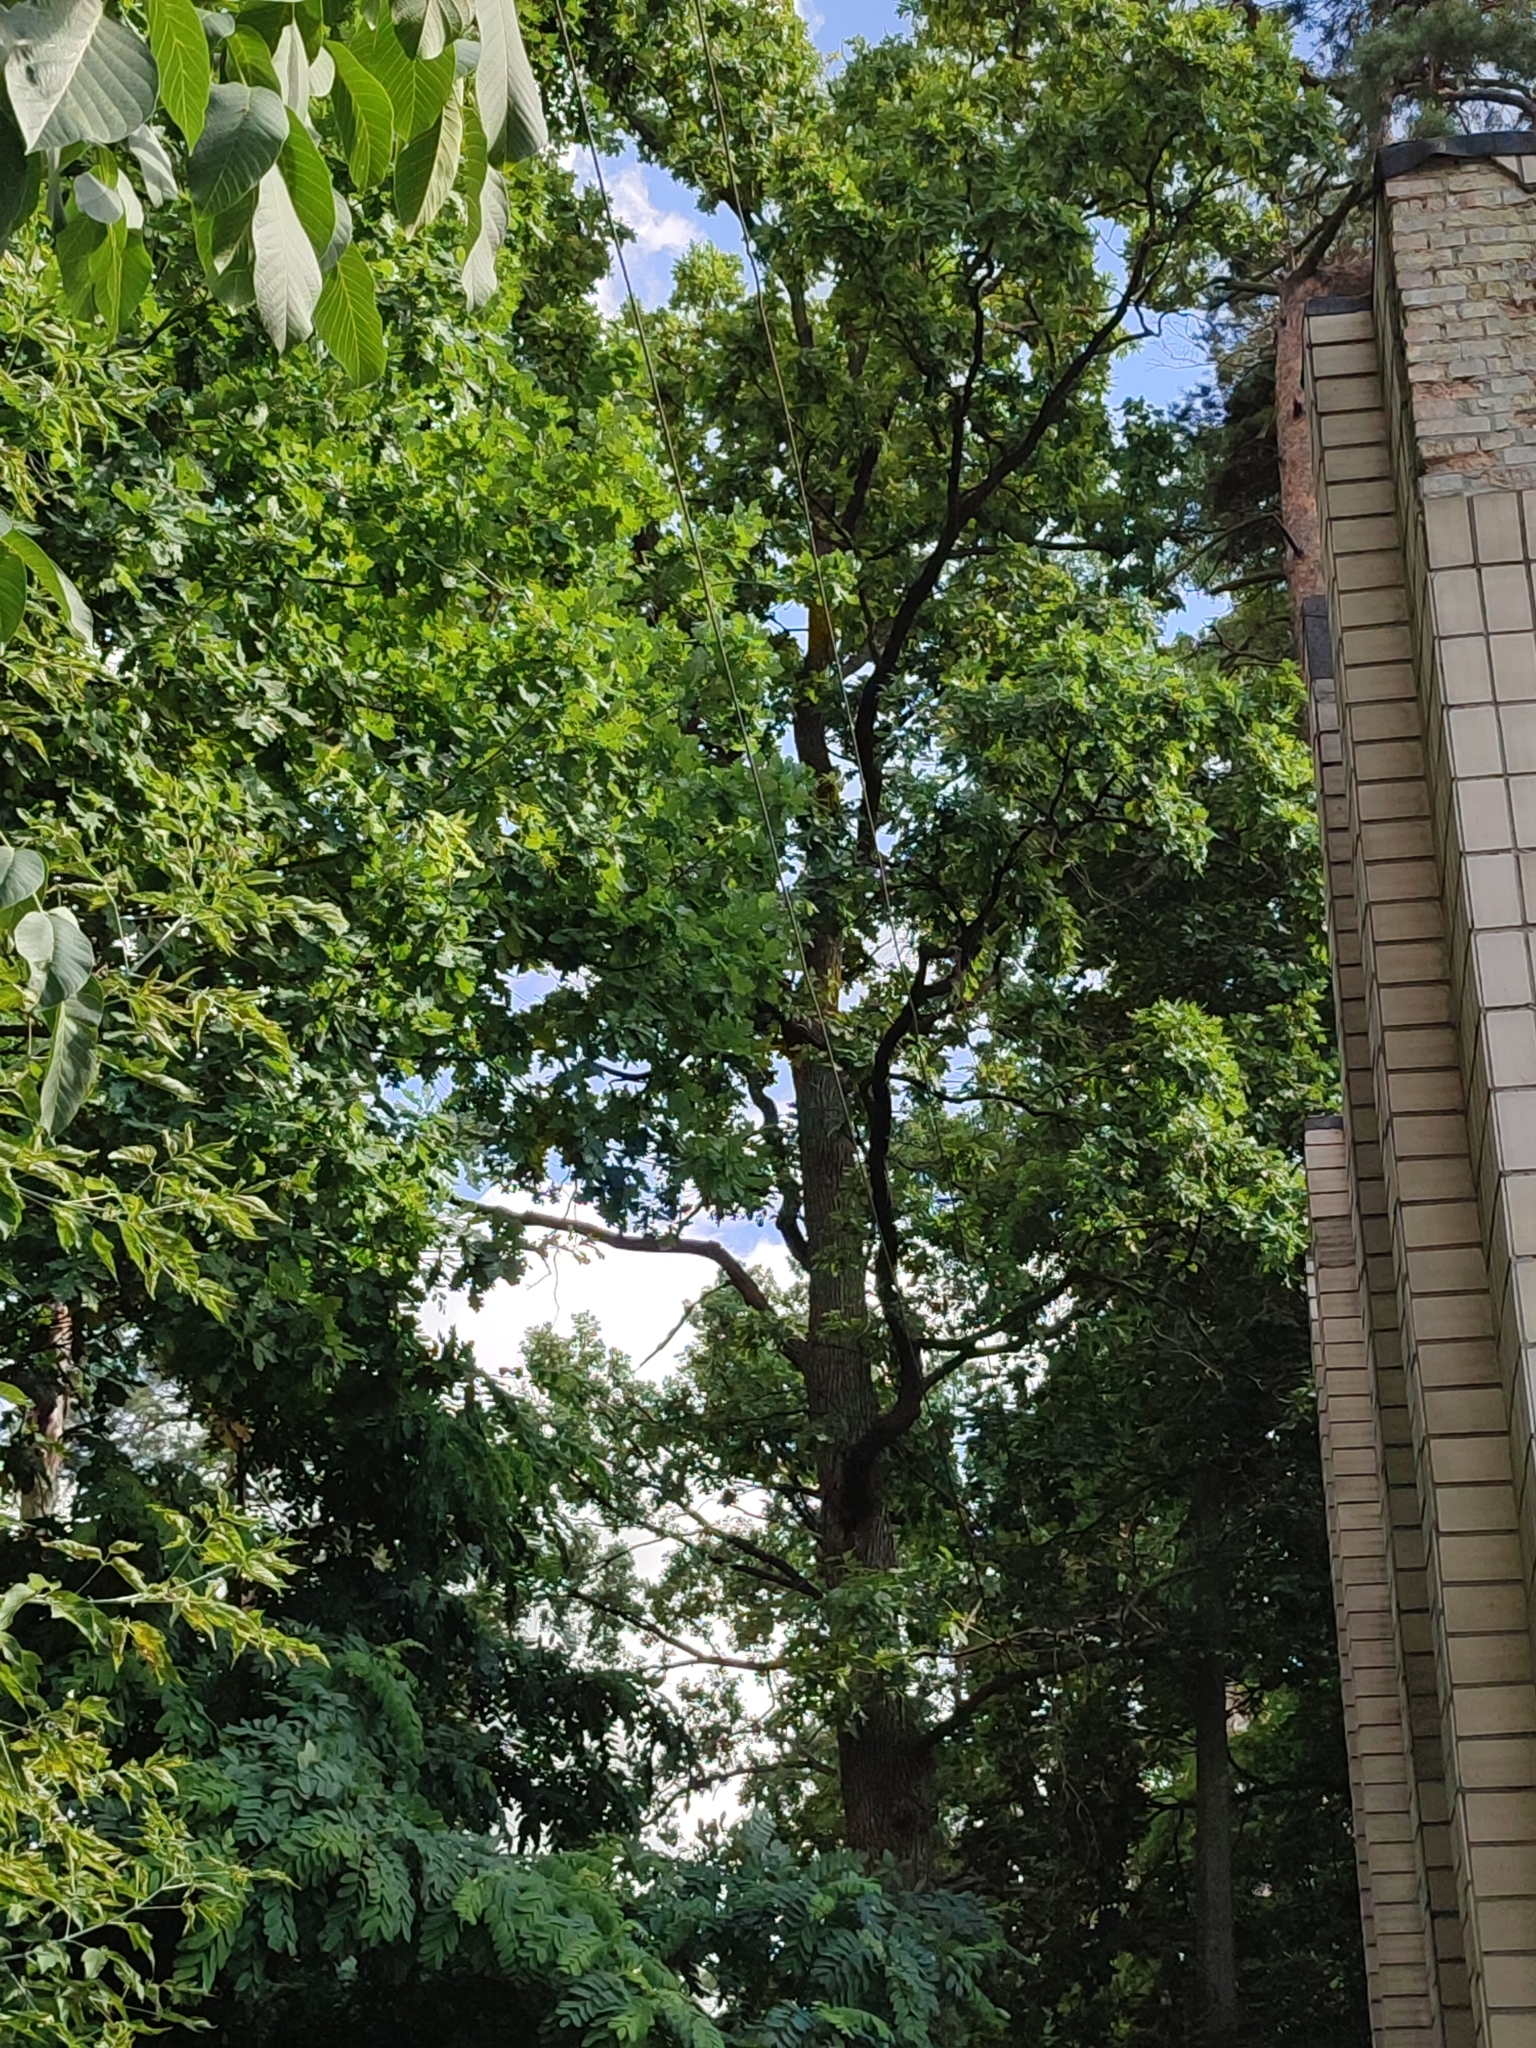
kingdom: Plantae
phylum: Tracheophyta
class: Magnoliopsida
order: Fagales
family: Fagaceae
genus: Quercus
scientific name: Quercus robur
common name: Pedunculate oak
